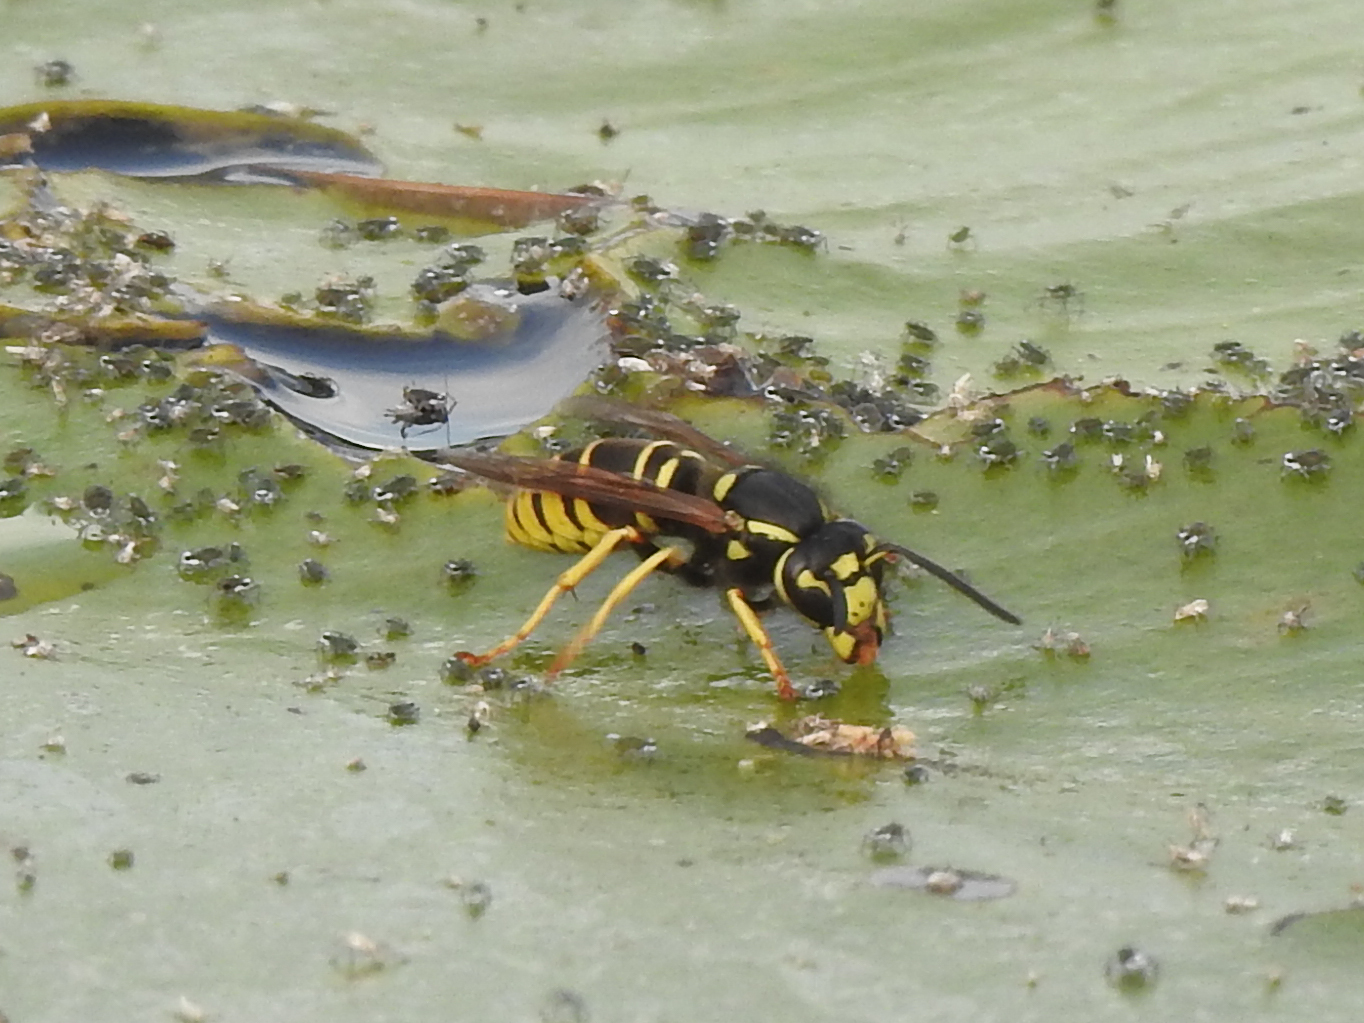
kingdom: Animalia
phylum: Arthropoda
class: Insecta
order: Hymenoptera
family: Vespidae
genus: Vespula
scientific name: Vespula vidua
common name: Widow yellowjacket
